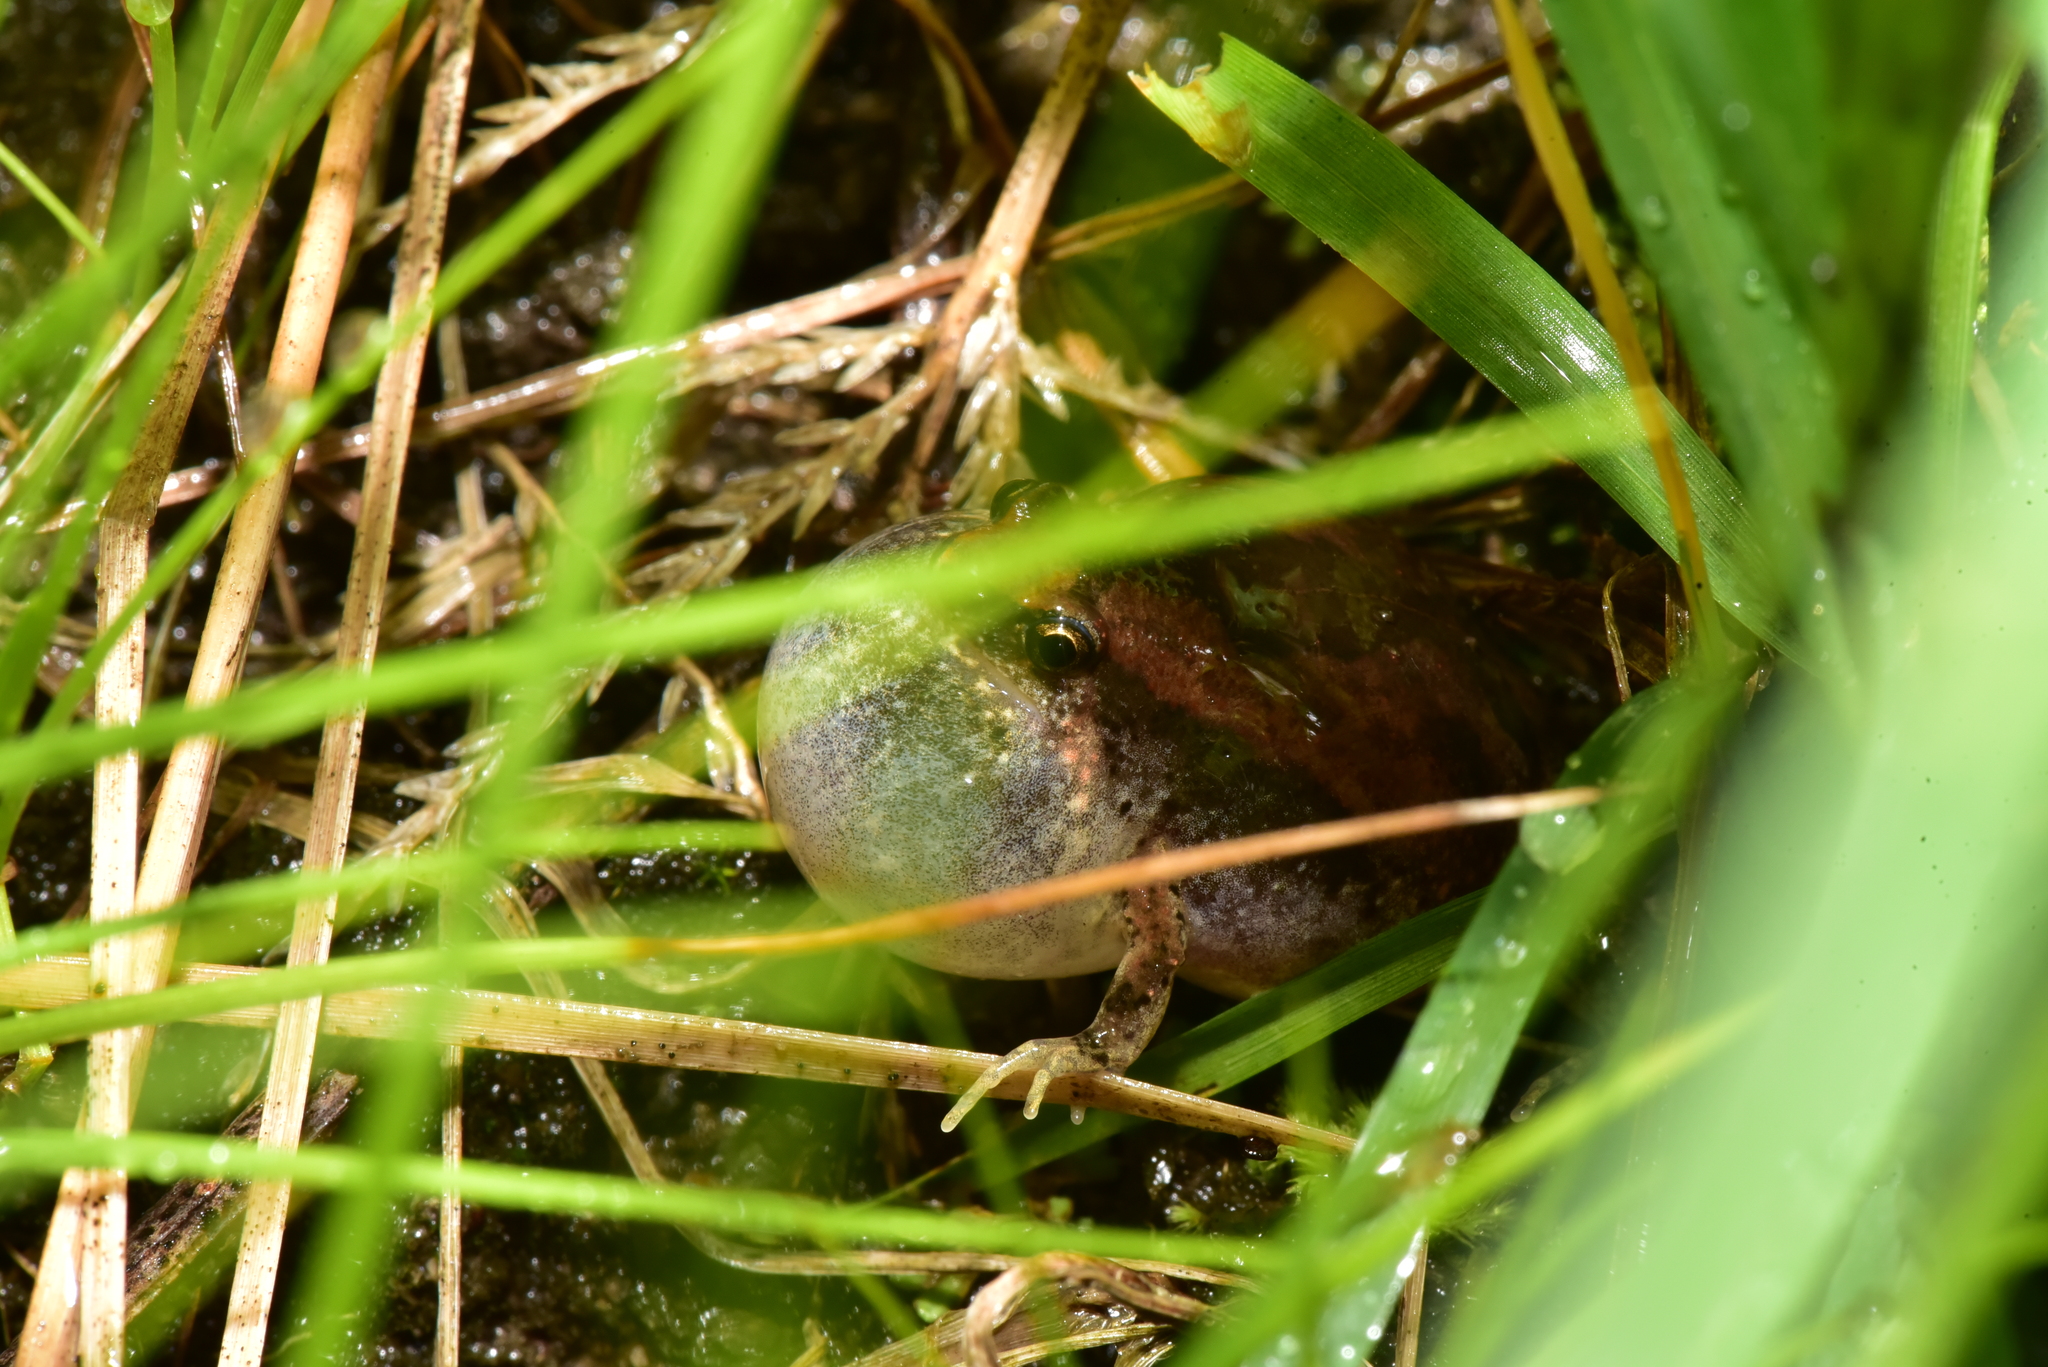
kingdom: Animalia
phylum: Chordata
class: Amphibia
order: Anura
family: Microhylidae
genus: Microhyla
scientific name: Microhyla fissipes
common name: Ornate narrow-mouthed frog
